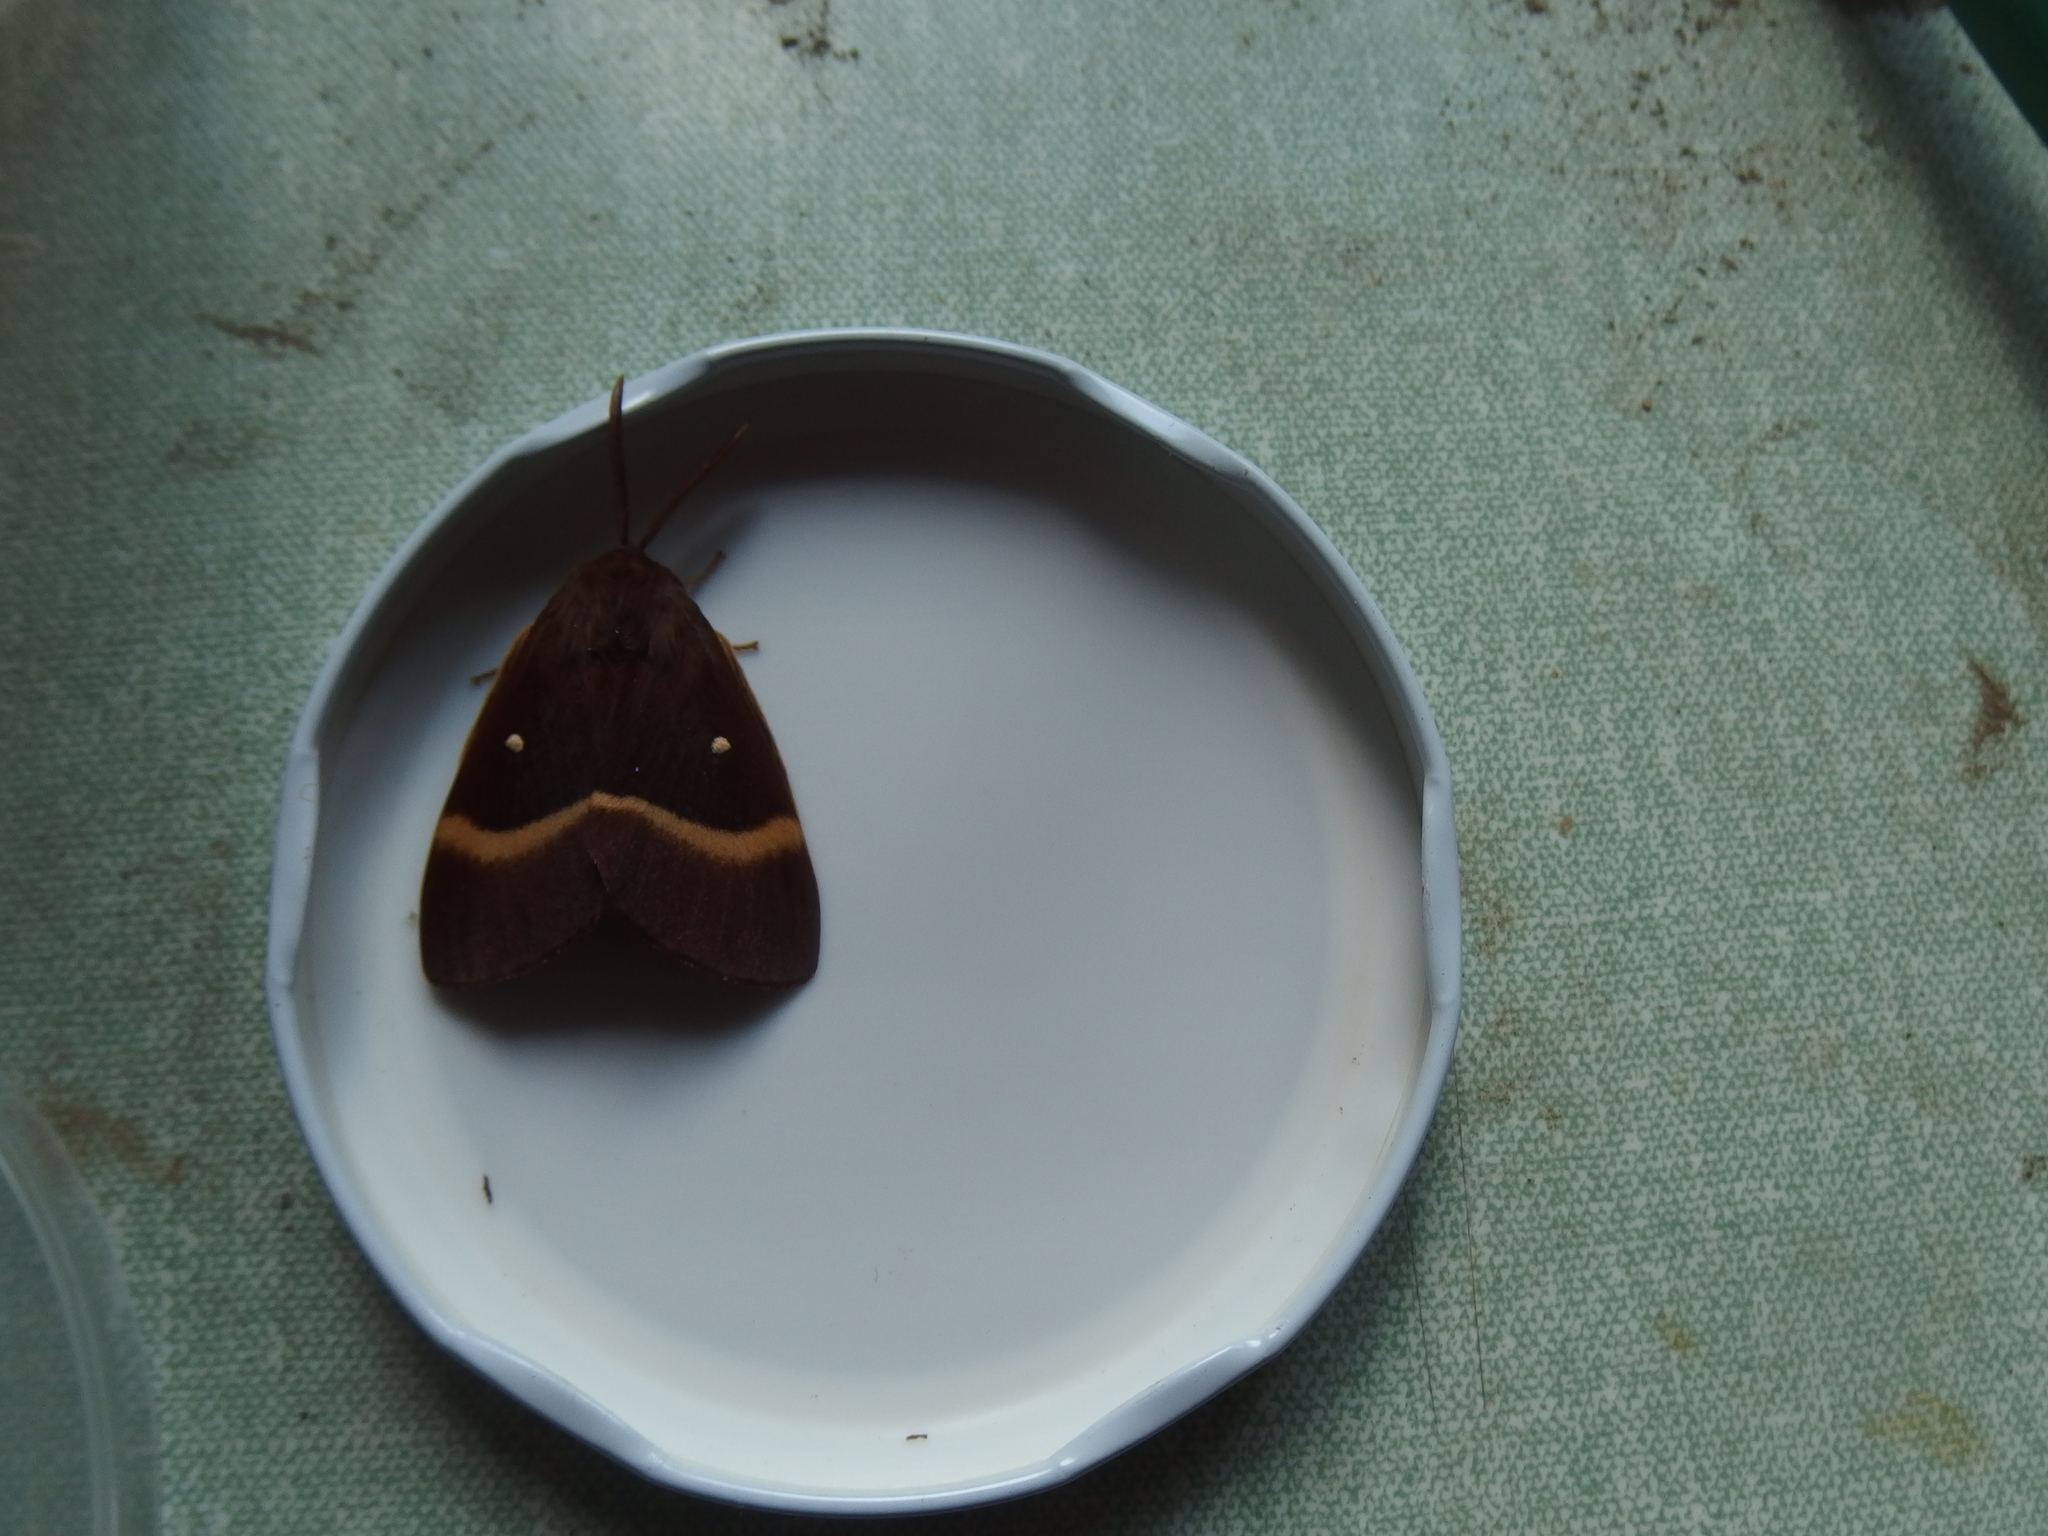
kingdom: Animalia
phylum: Arthropoda
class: Insecta
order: Lepidoptera
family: Lasiocampidae
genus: Lasiocampa
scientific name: Lasiocampa quercus
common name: Oak eggar
